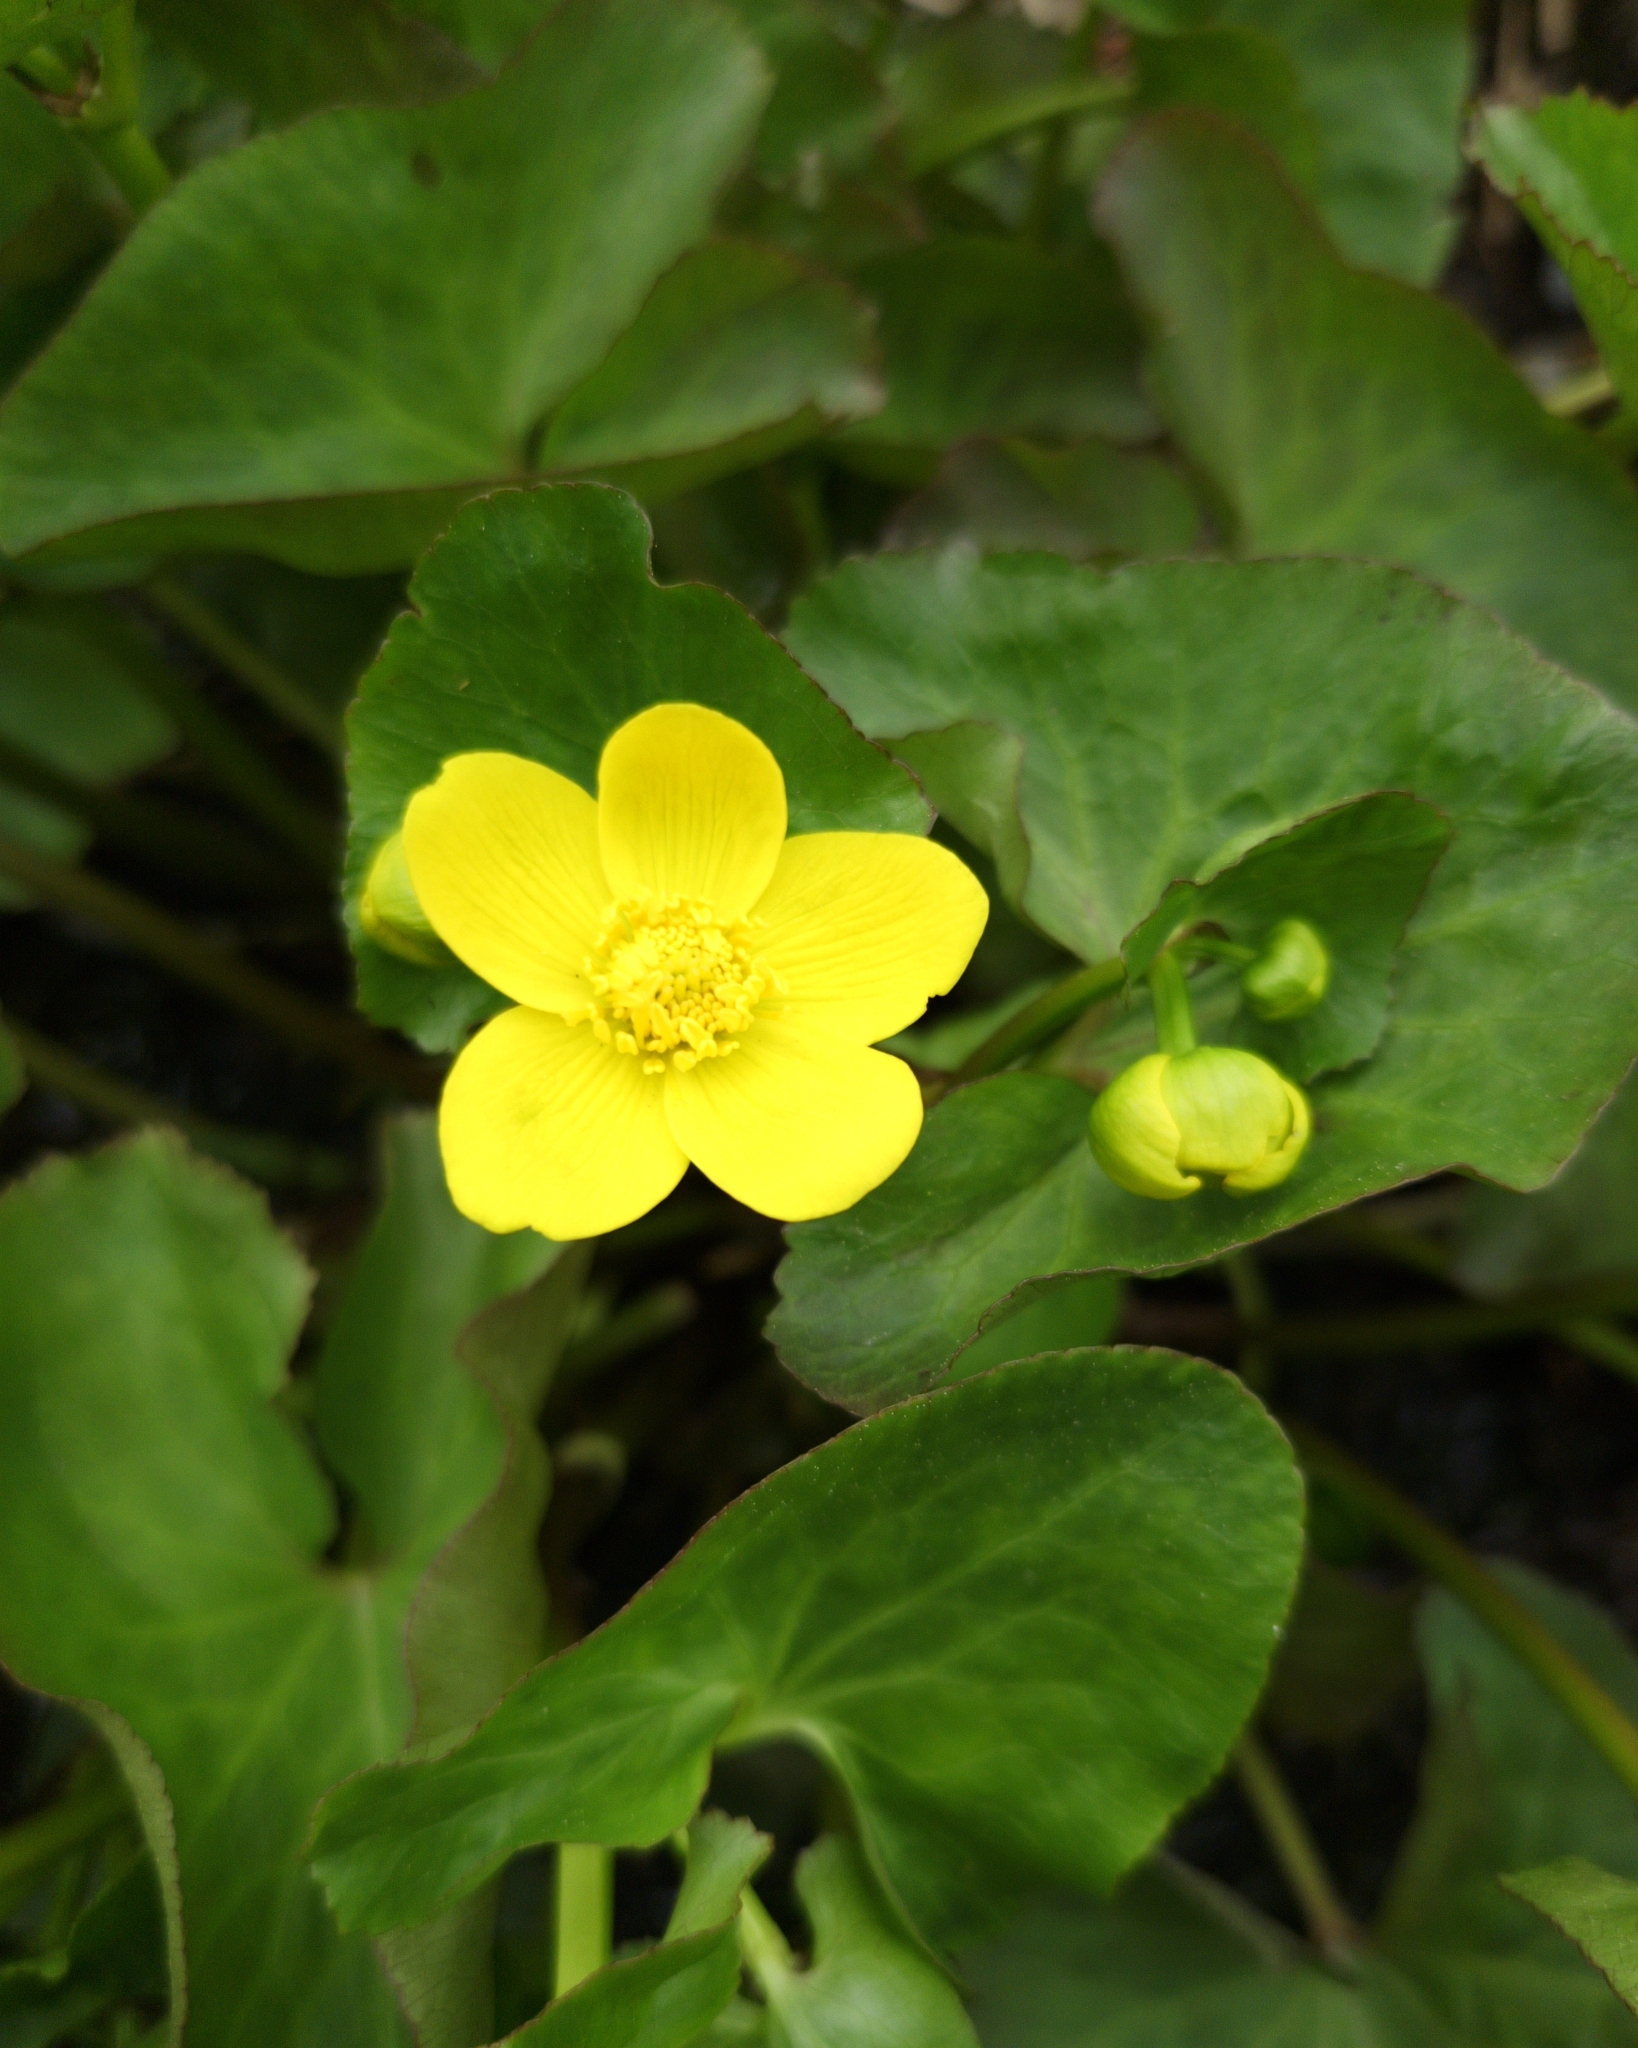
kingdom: Plantae
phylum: Tracheophyta
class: Magnoliopsida
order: Ranunculales
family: Ranunculaceae
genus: Caltha
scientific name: Caltha palustris
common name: Marsh marigold
